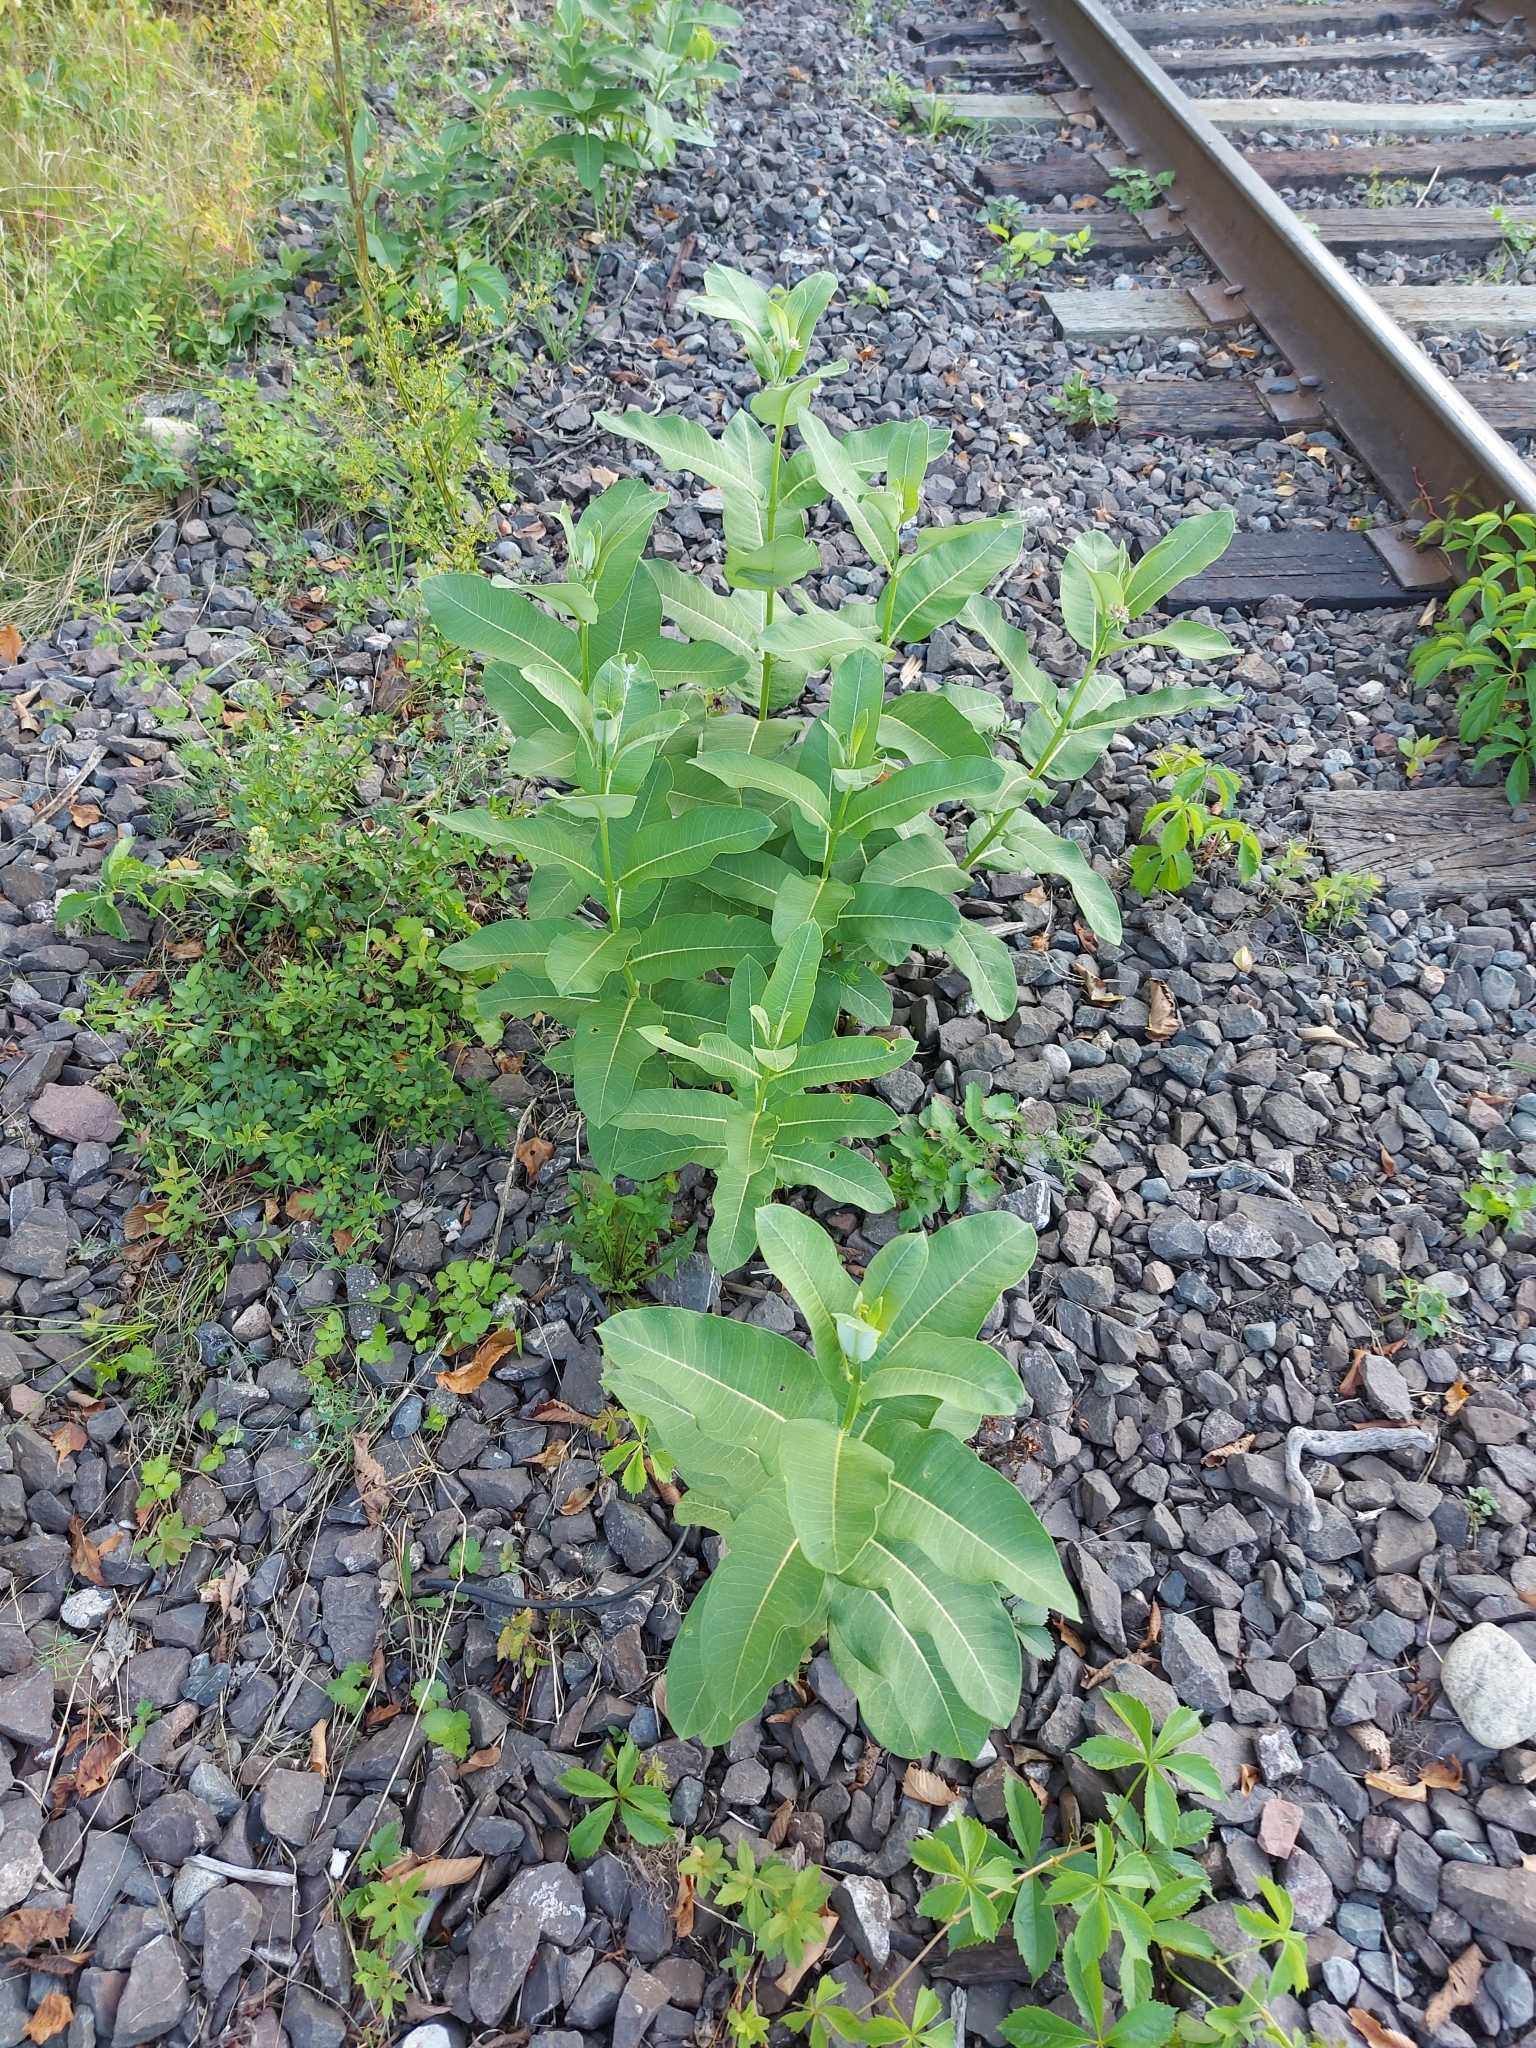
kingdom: Plantae
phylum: Tracheophyta
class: Magnoliopsida
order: Gentianales
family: Apocynaceae
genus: Asclepias
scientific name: Asclepias syriaca
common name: Common milkweed
